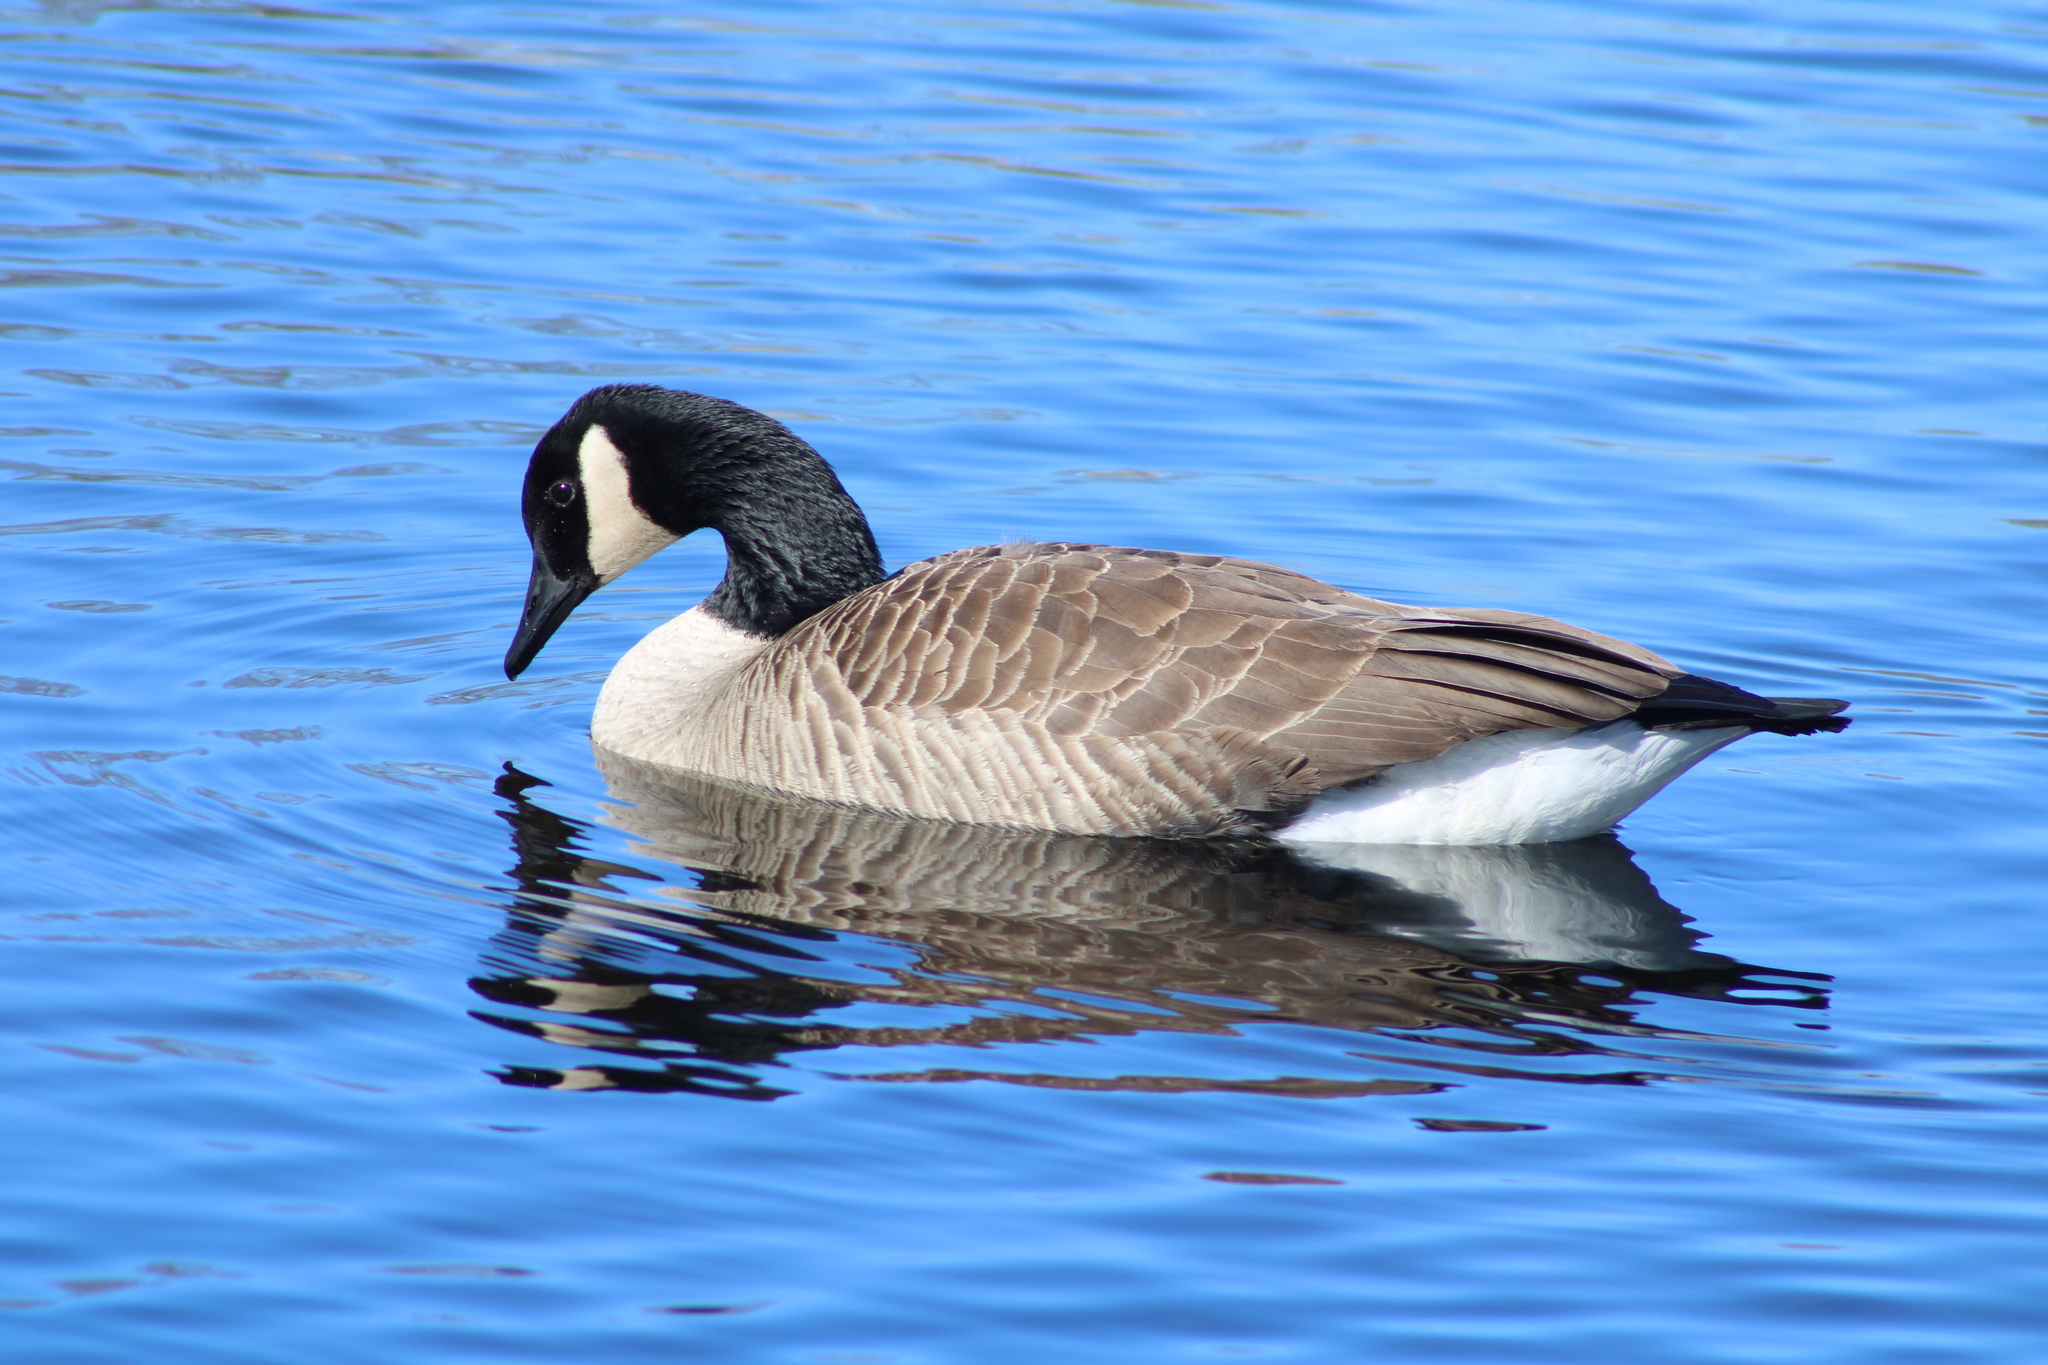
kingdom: Animalia
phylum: Chordata
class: Aves
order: Anseriformes
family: Anatidae
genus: Branta
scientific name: Branta canadensis
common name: Canada goose
